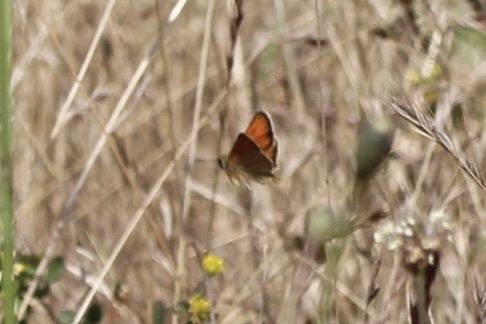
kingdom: Animalia
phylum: Arthropoda
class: Insecta
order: Lepidoptera
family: Hesperiidae
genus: Thymelicus
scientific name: Thymelicus lineola
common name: Essex skipper
